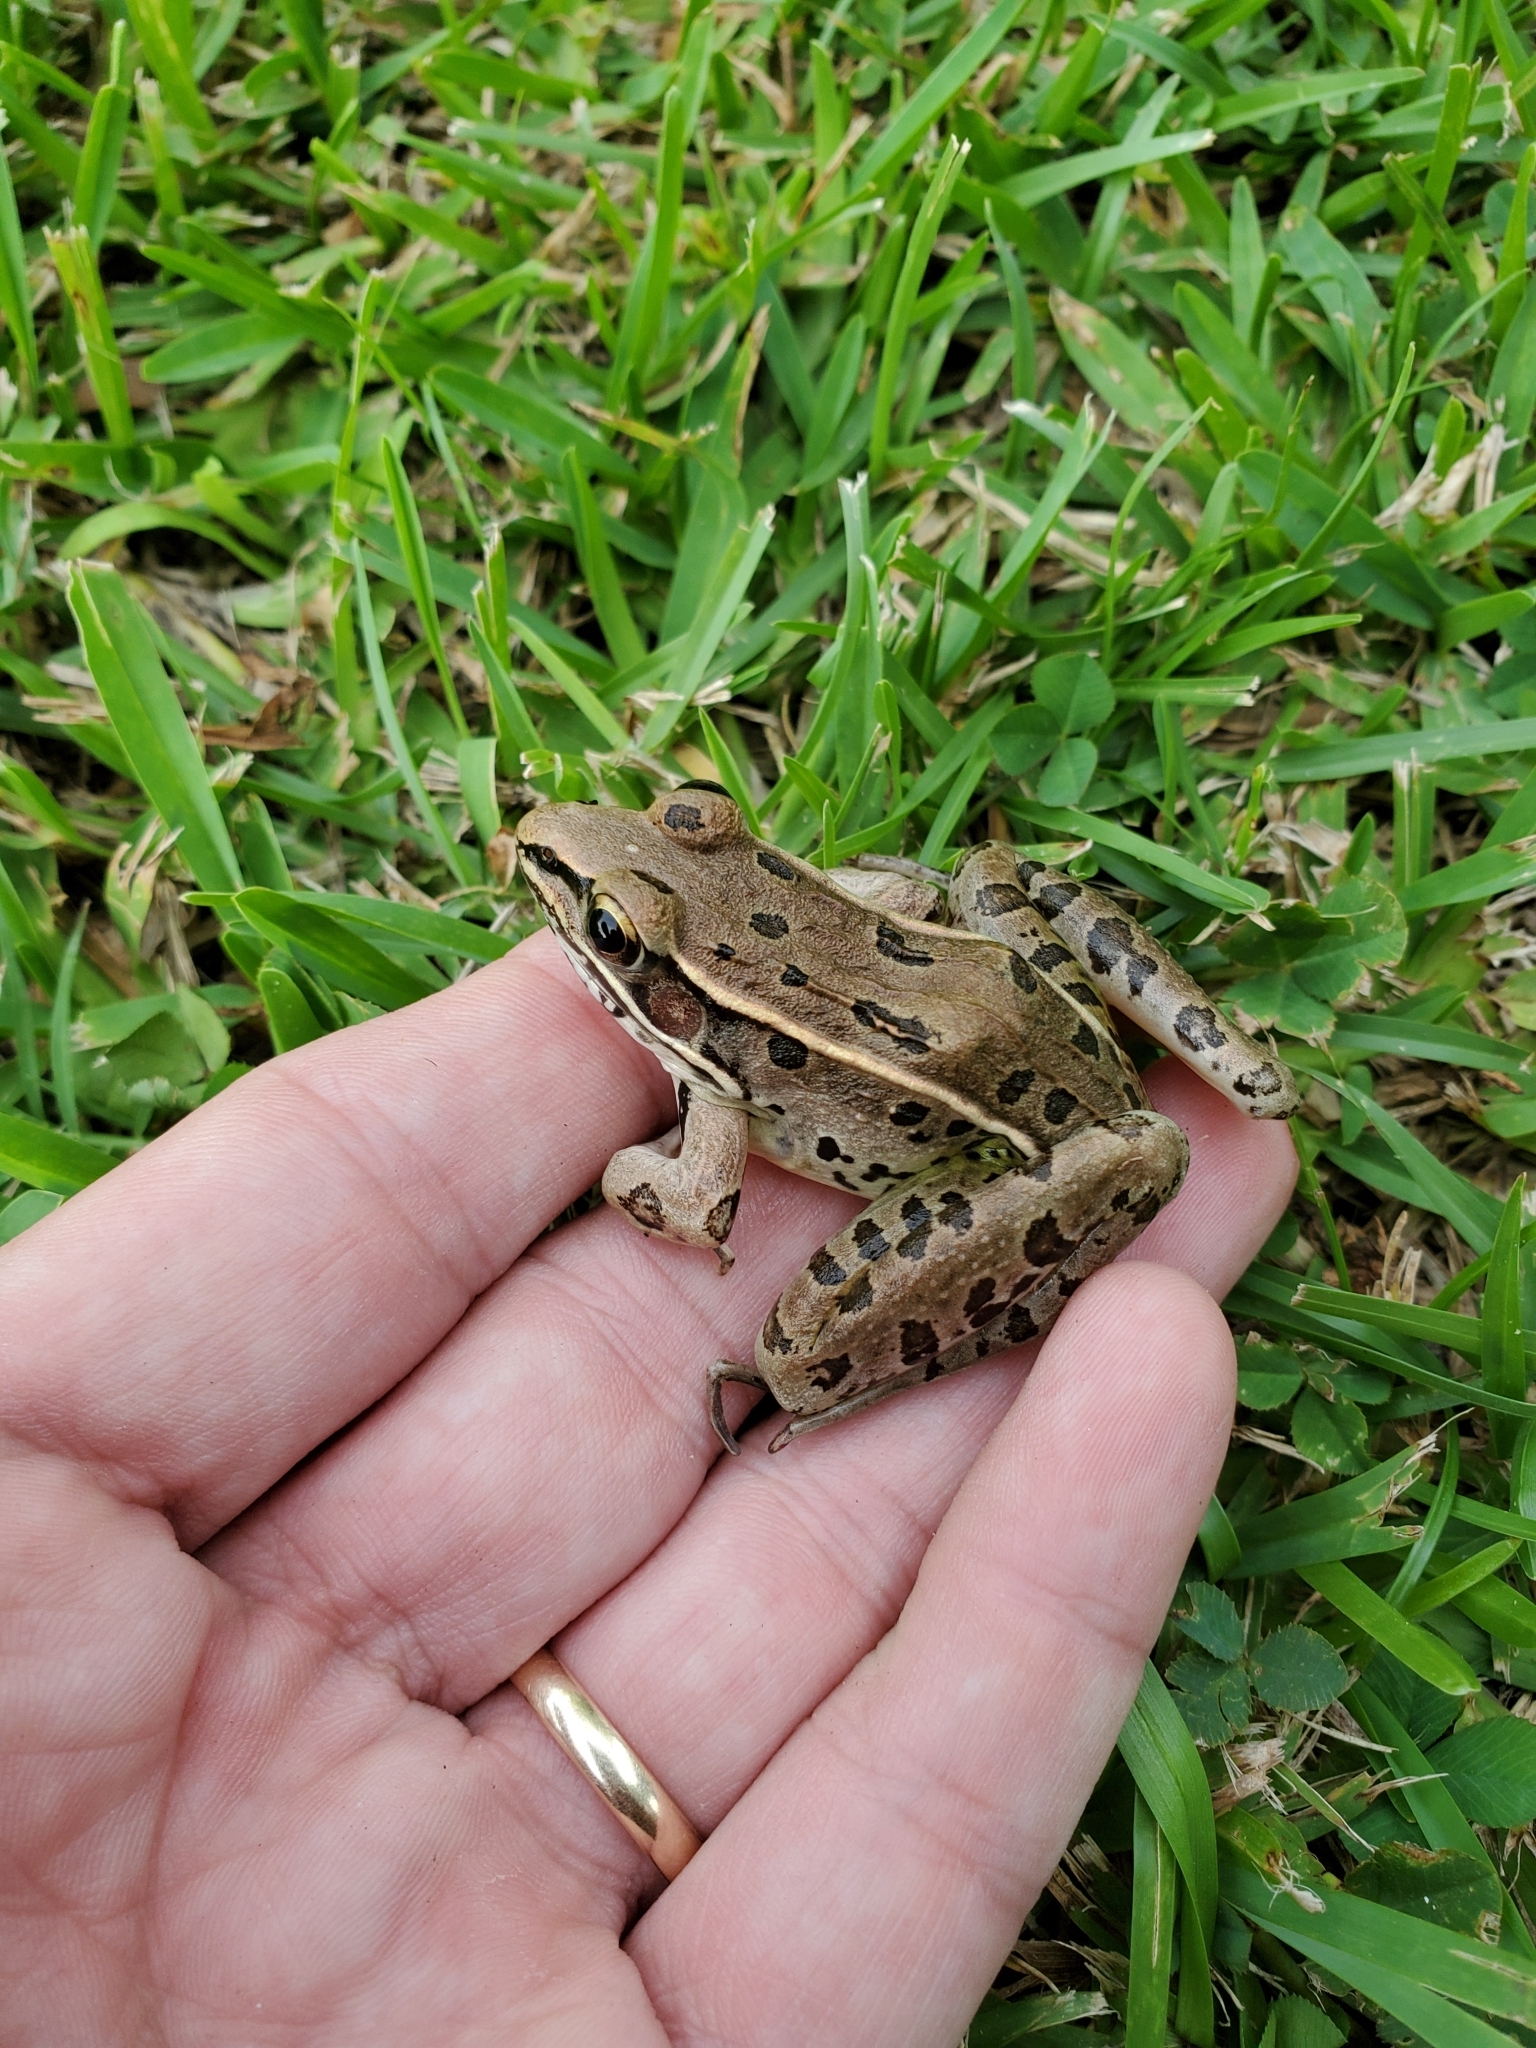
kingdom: Animalia
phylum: Chordata
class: Amphibia
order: Anura
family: Ranidae
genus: Lithobates
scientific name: Lithobates sphenocephalus
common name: Southern leopard frog
